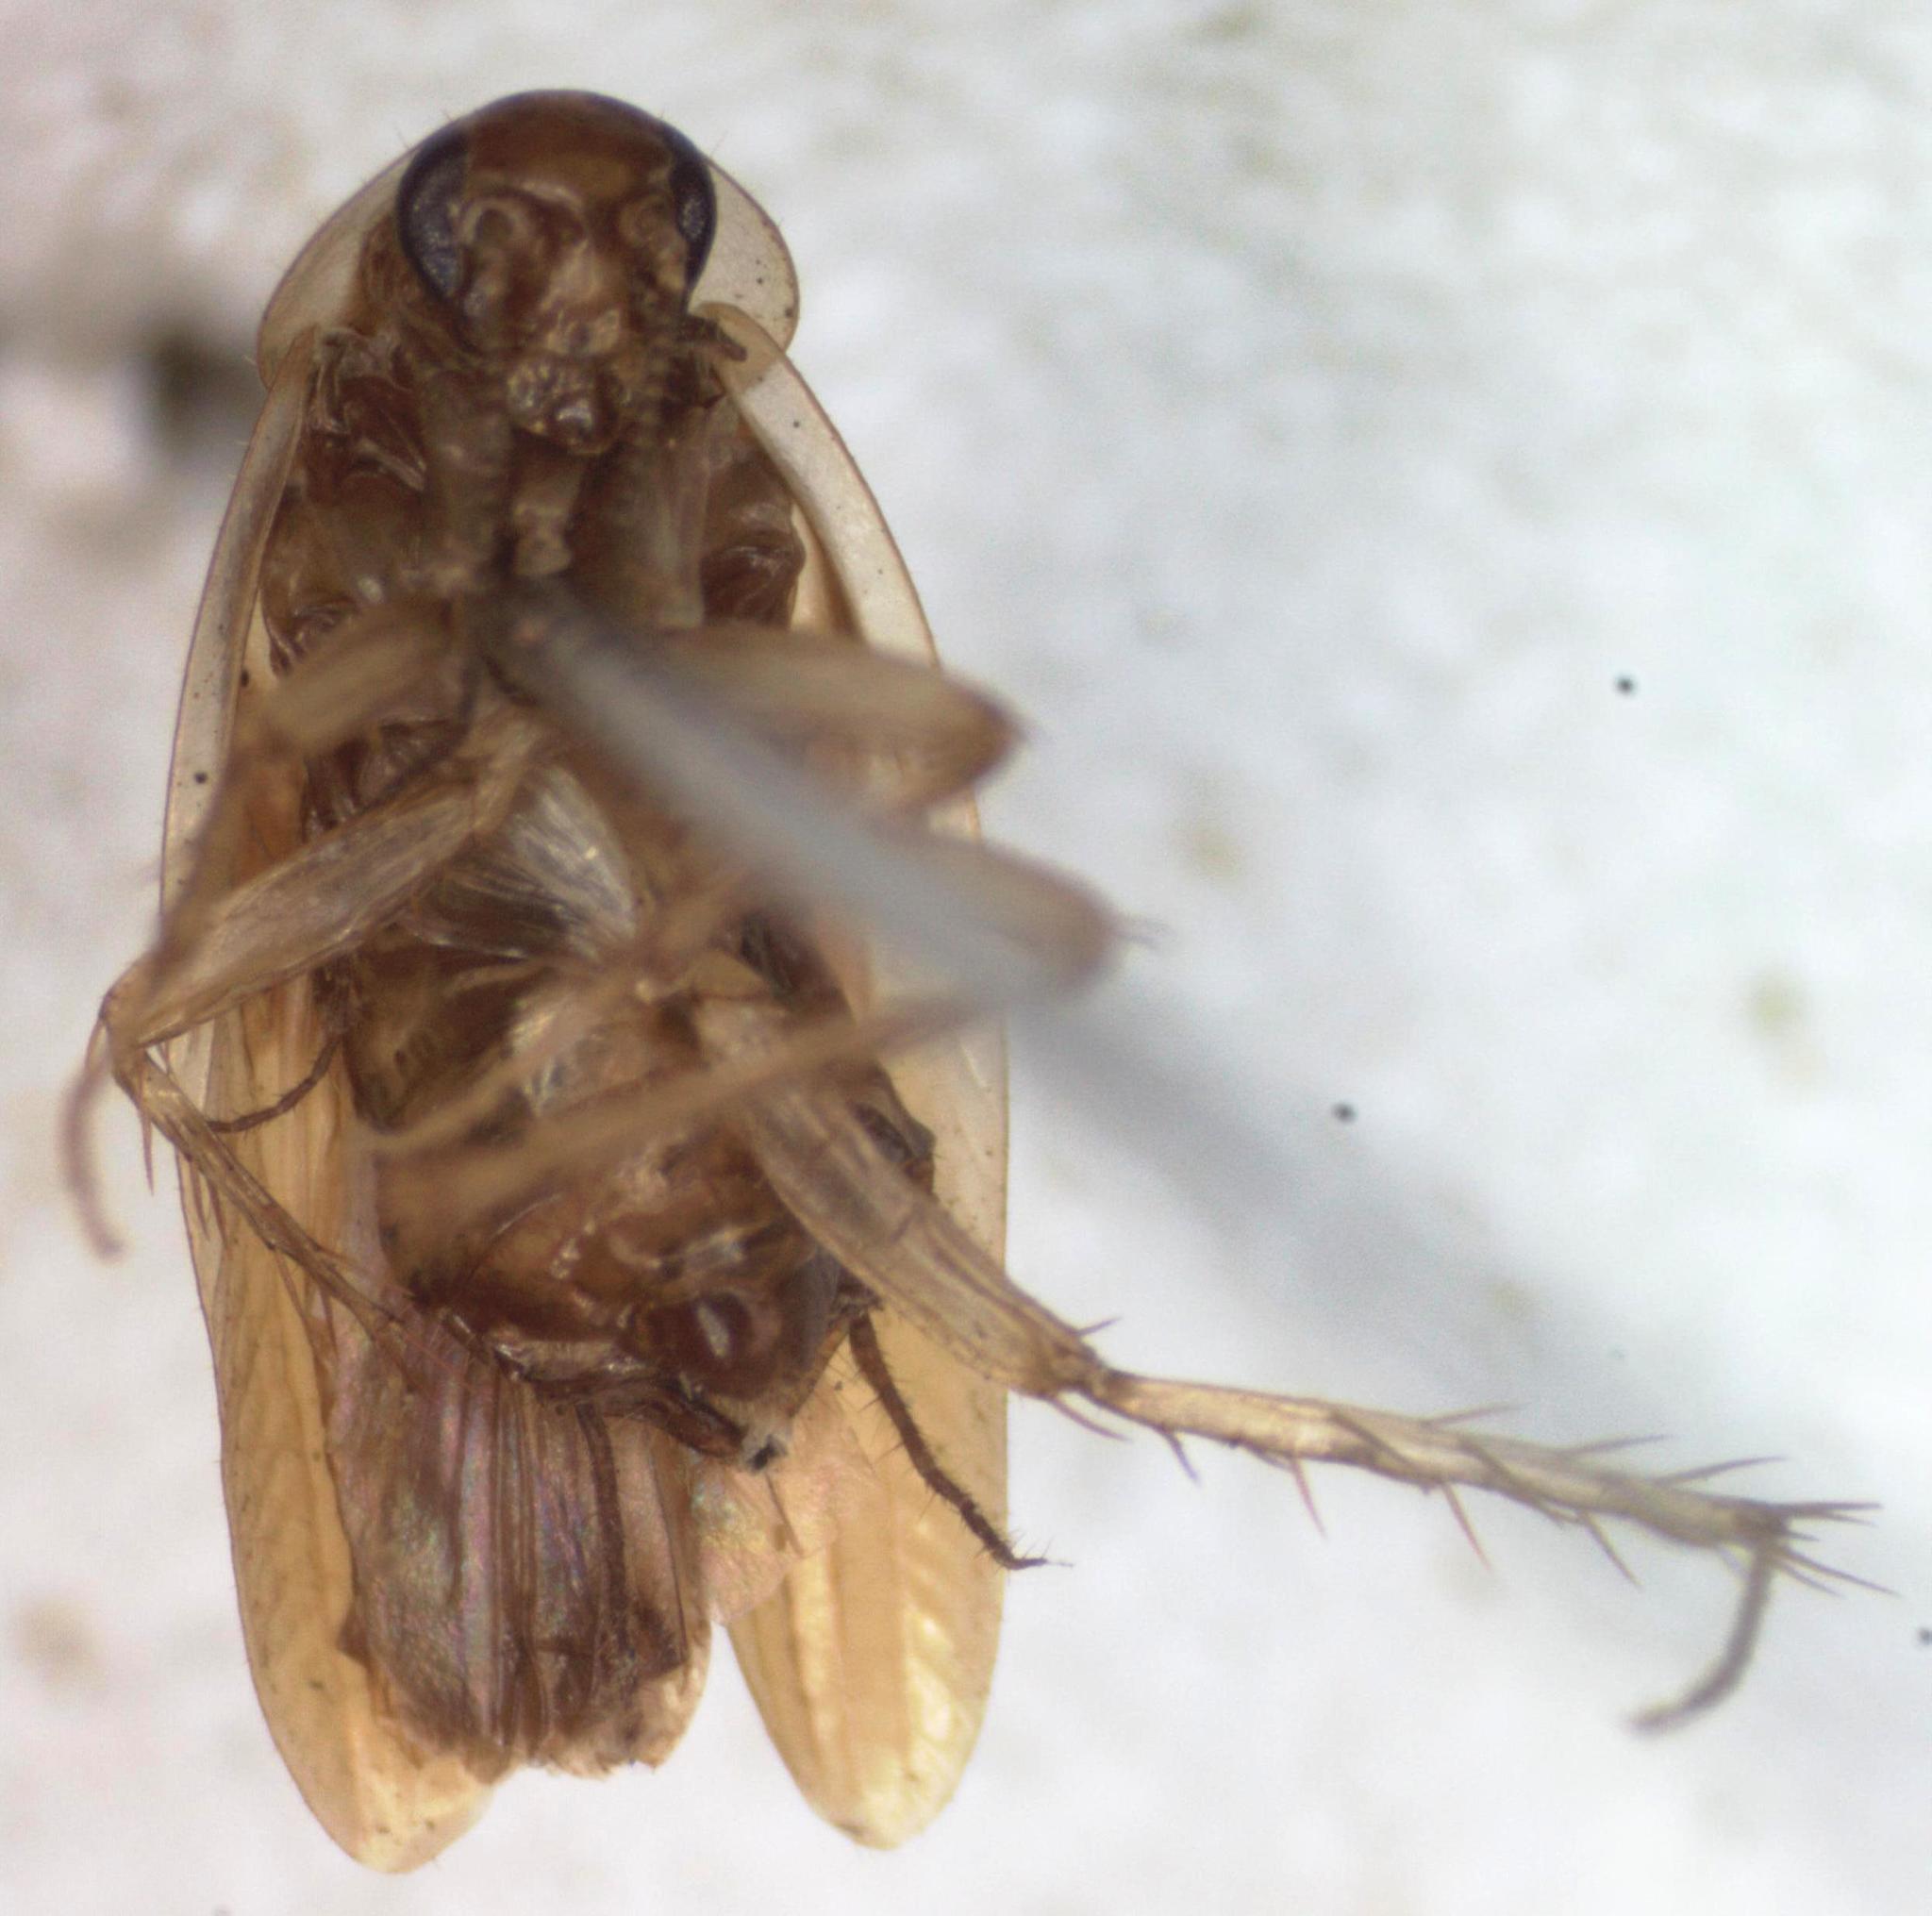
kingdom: Animalia
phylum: Arthropoda
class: Insecta
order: Blattodea
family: Anaplectidae
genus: Anaplecta
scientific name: Anaplecta hemiscotia
